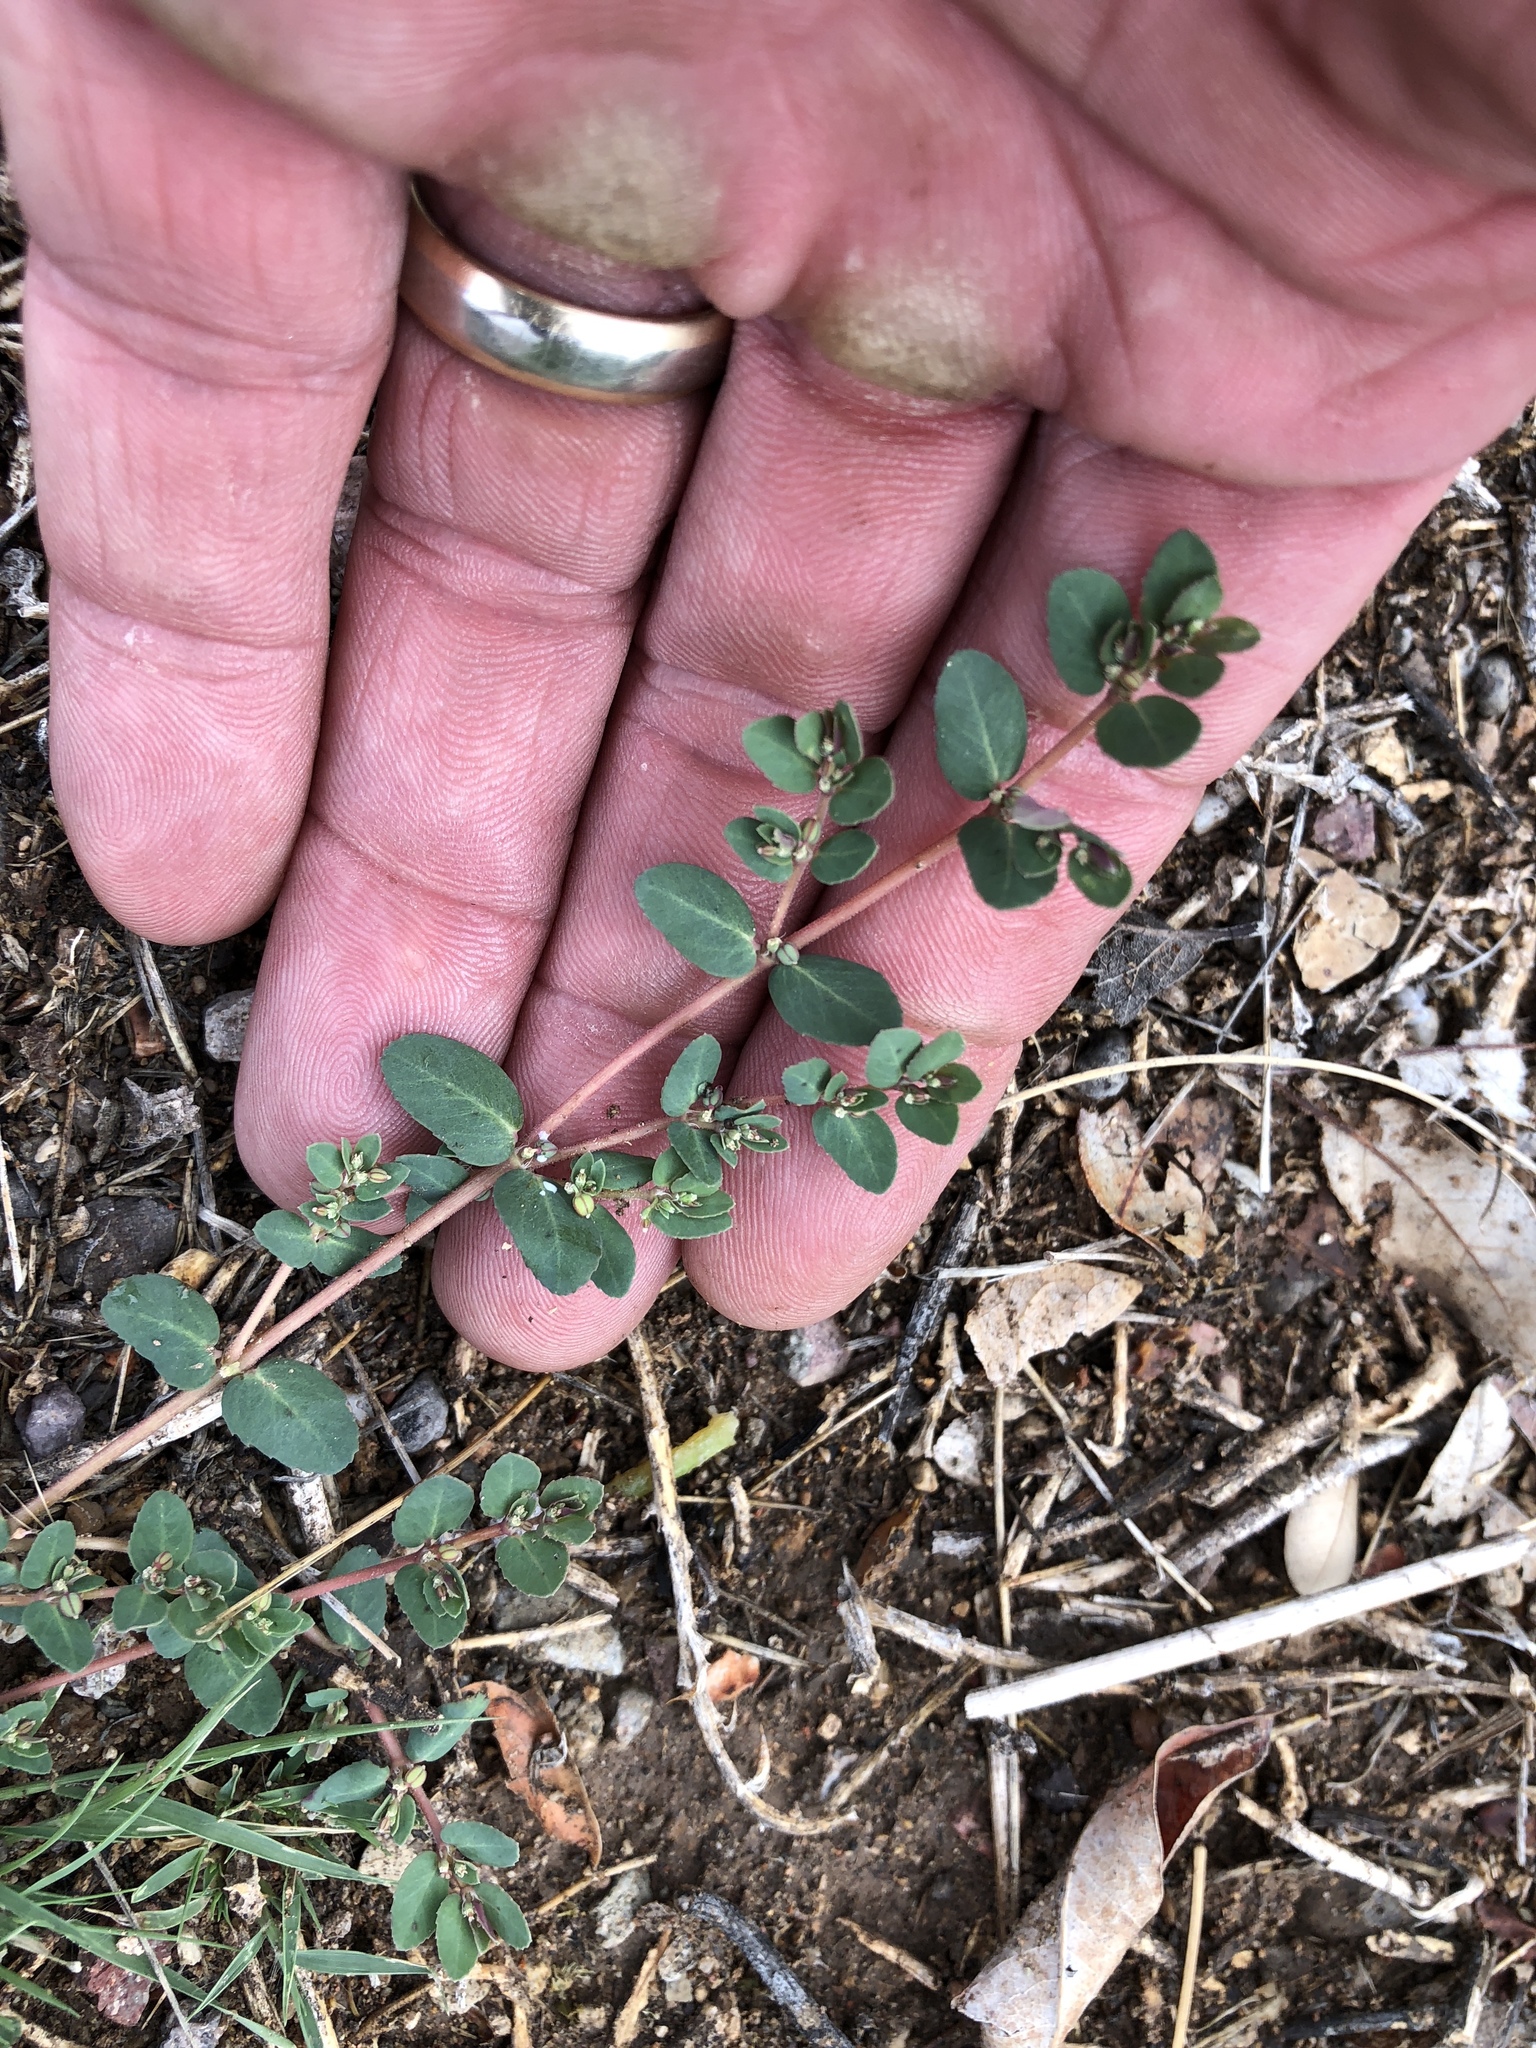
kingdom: Plantae
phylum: Tracheophyta
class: Magnoliopsida
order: Malpighiales
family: Euphorbiaceae
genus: Euphorbia
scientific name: Euphorbia abramsiana
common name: Abram's spurge
